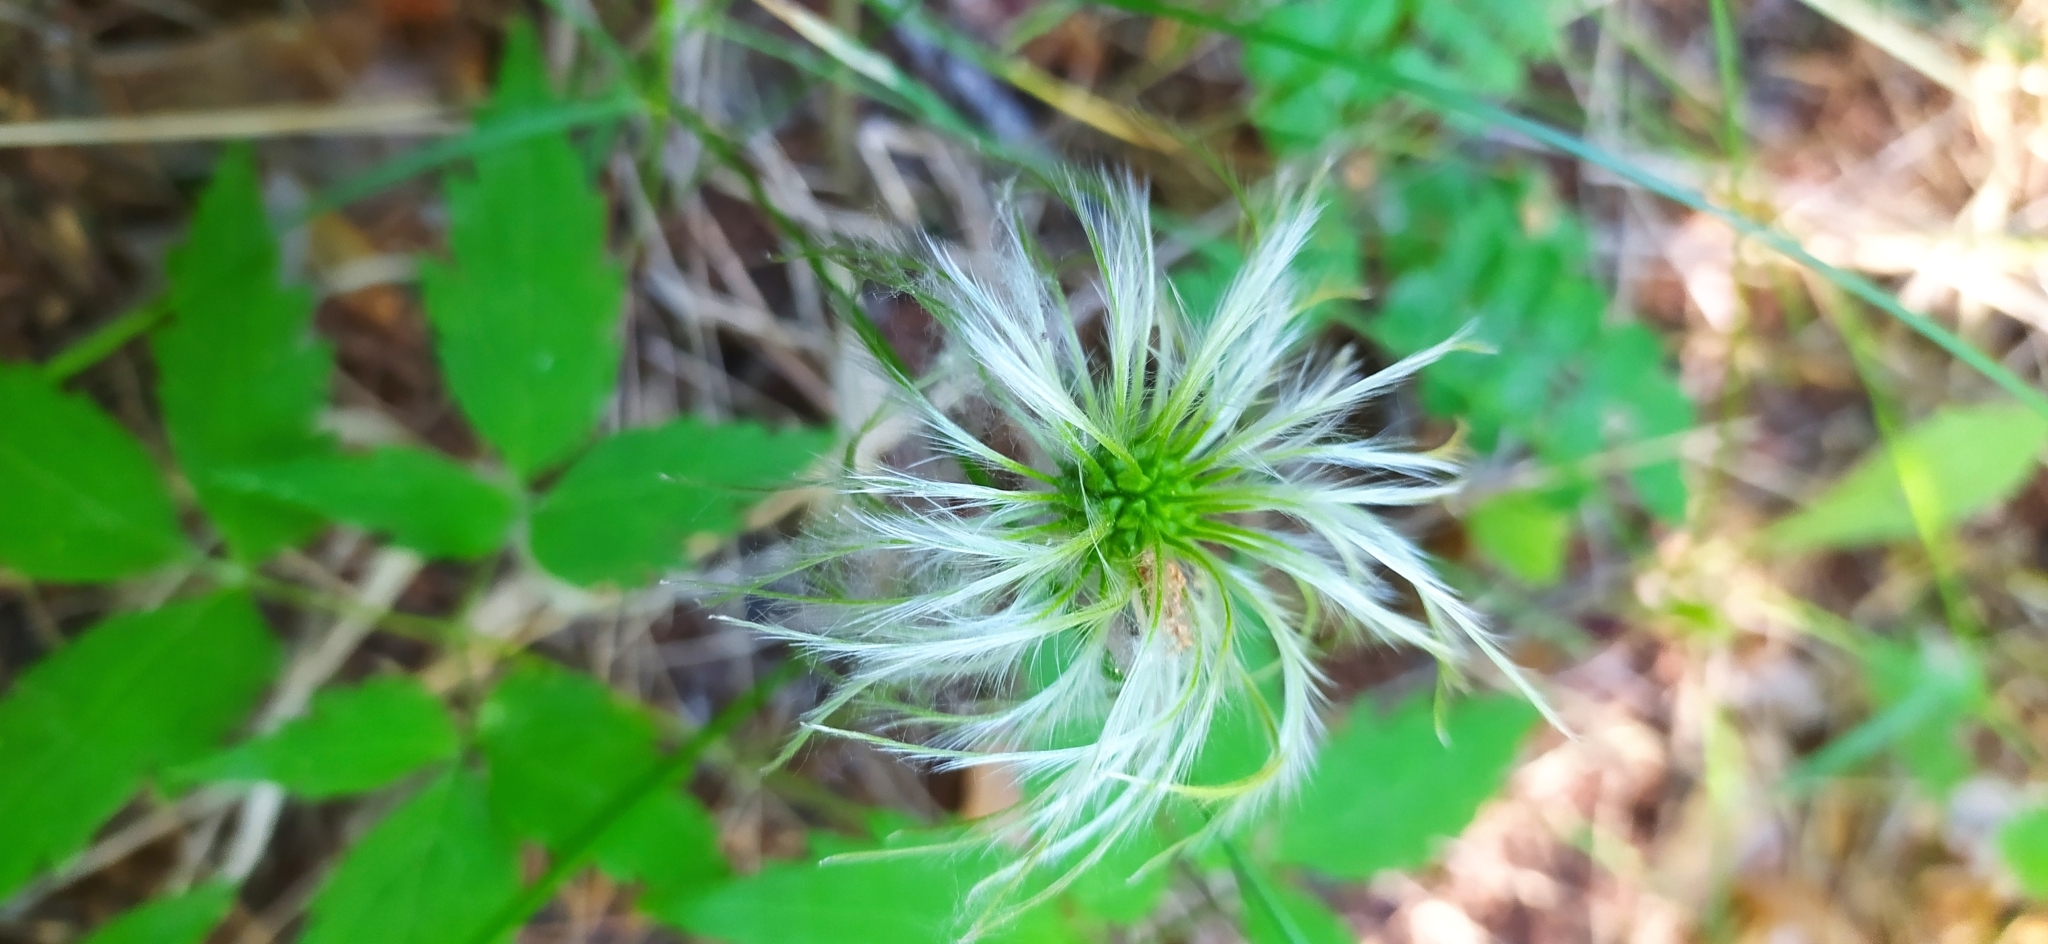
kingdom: Plantae
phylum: Tracheophyta
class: Magnoliopsida
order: Ranunculales
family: Ranunculaceae
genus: Clematis
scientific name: Clematis sibirica
